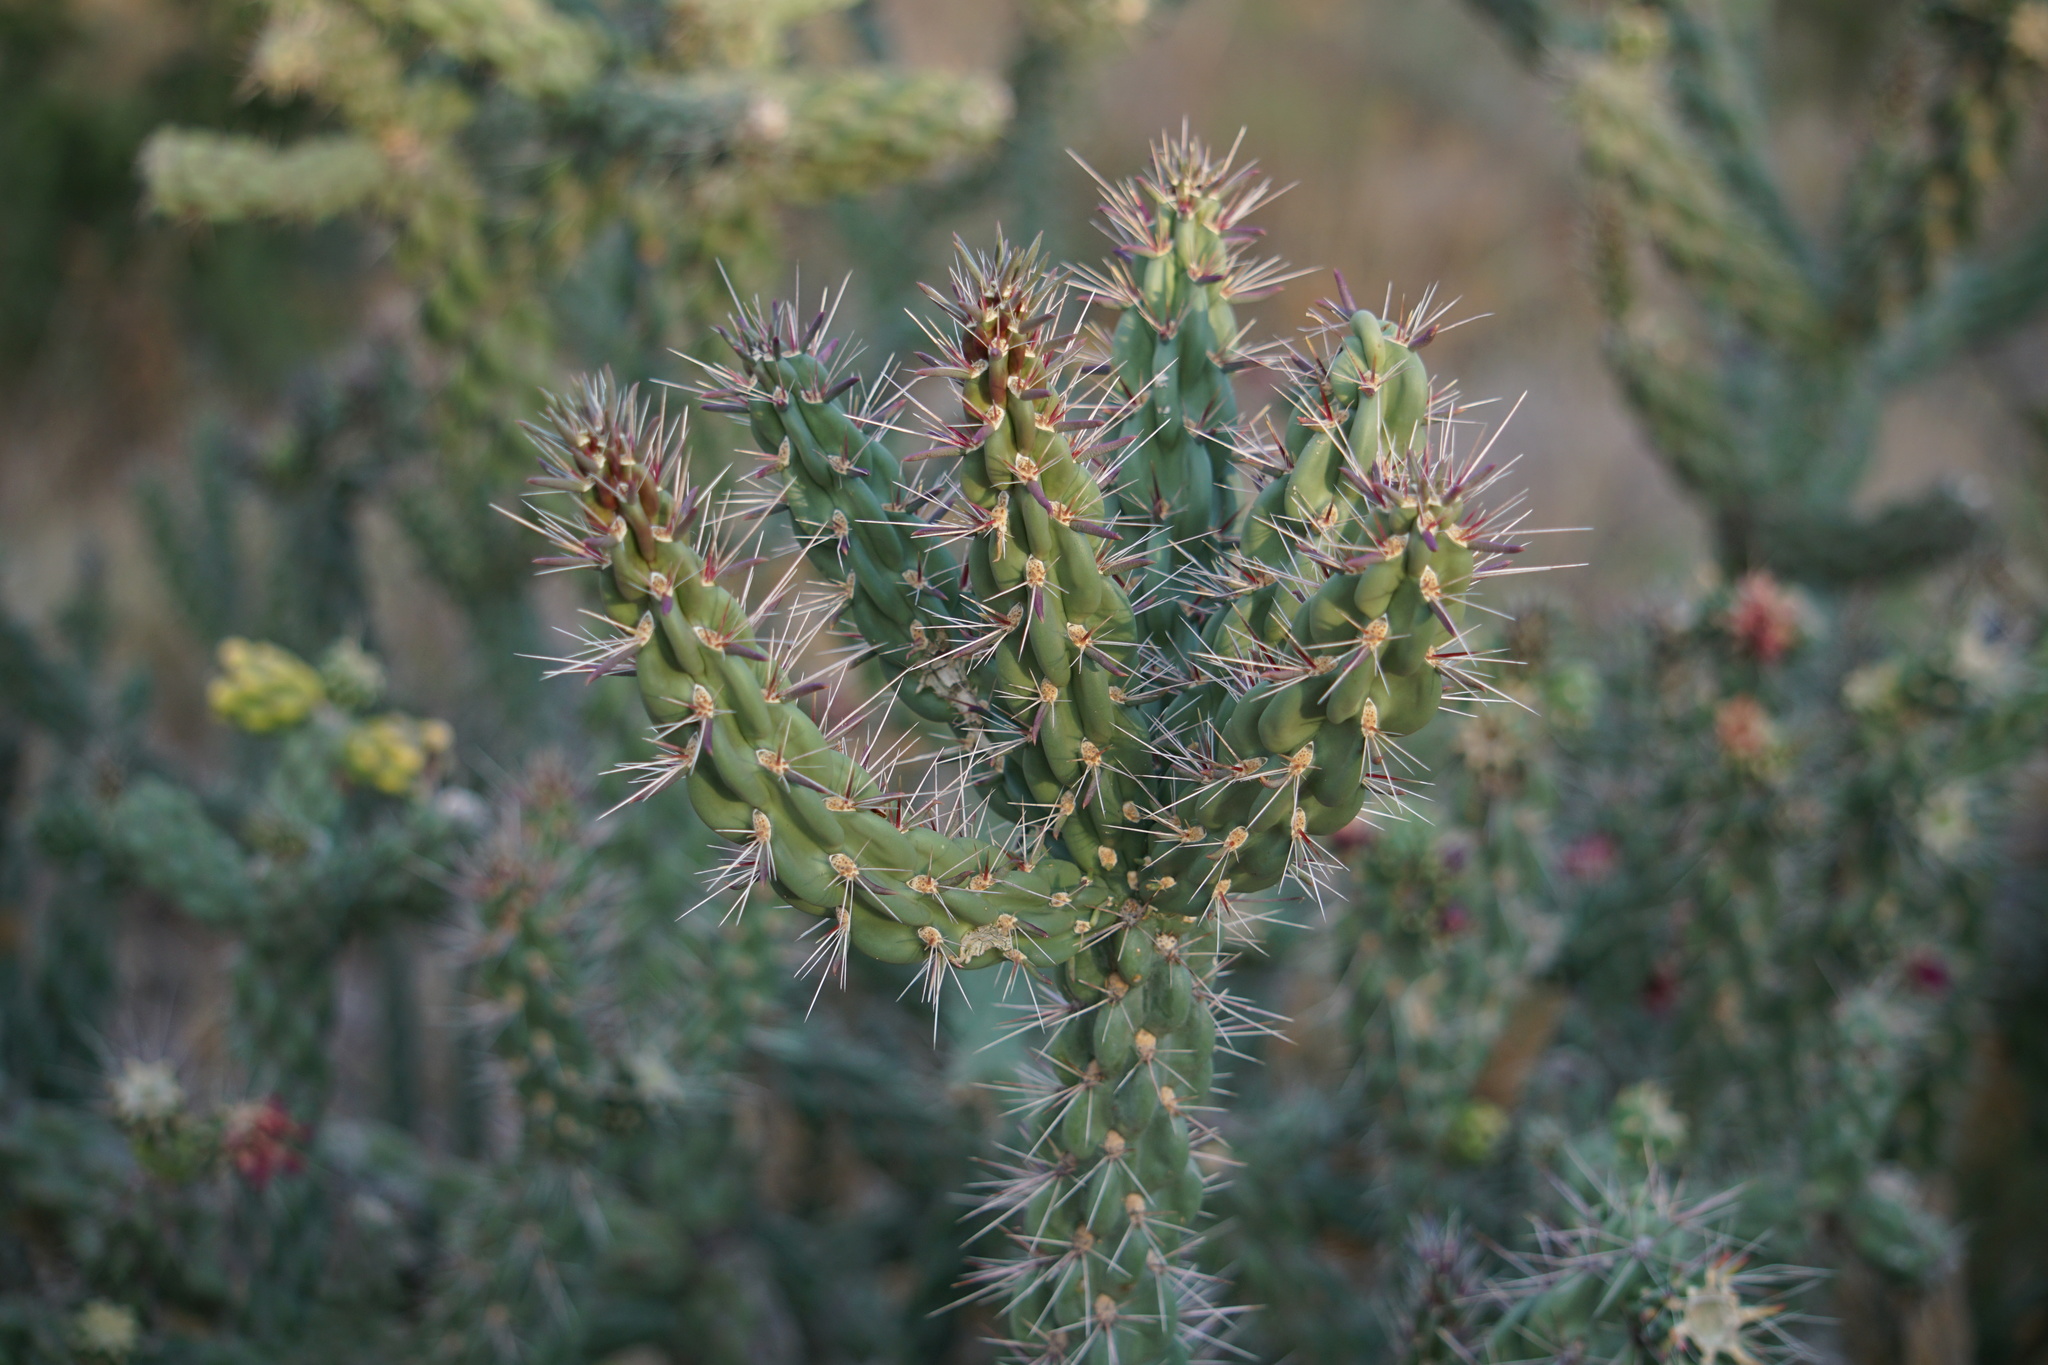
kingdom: Plantae
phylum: Tracheophyta
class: Magnoliopsida
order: Caryophyllales
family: Cactaceae
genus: Cylindropuntia
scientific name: Cylindropuntia imbricata
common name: Candelabrum cactus
